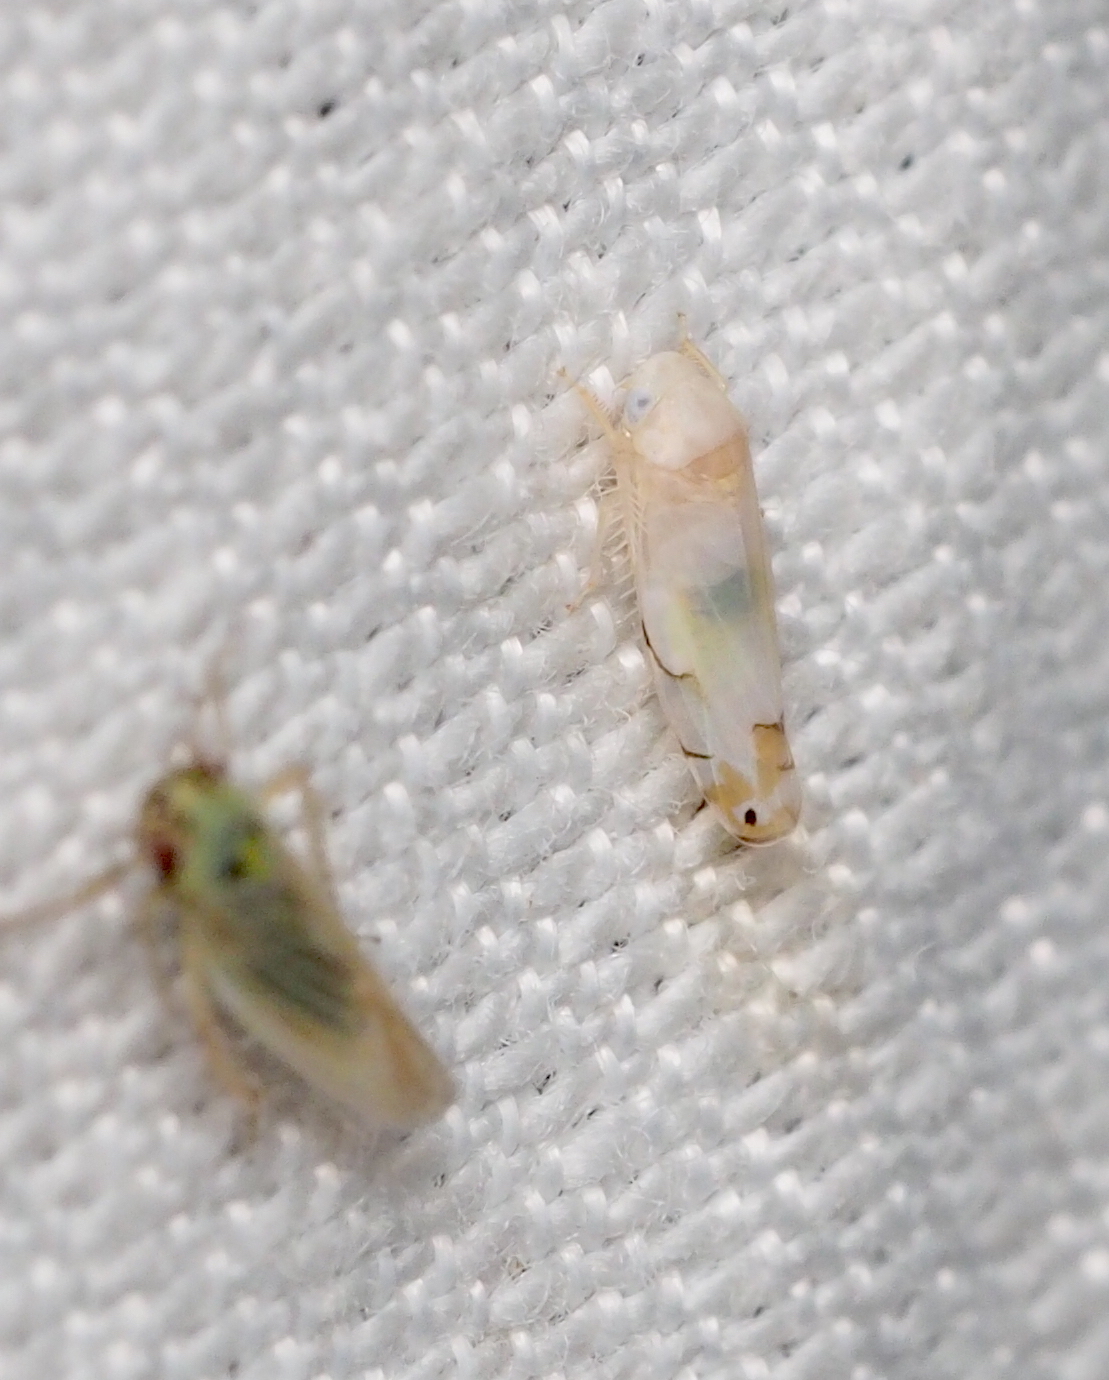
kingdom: Animalia
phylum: Arthropoda
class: Insecta
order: Hemiptera
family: Cicadellidae
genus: Eurhadina
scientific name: Eurhadina kirschbaumi
